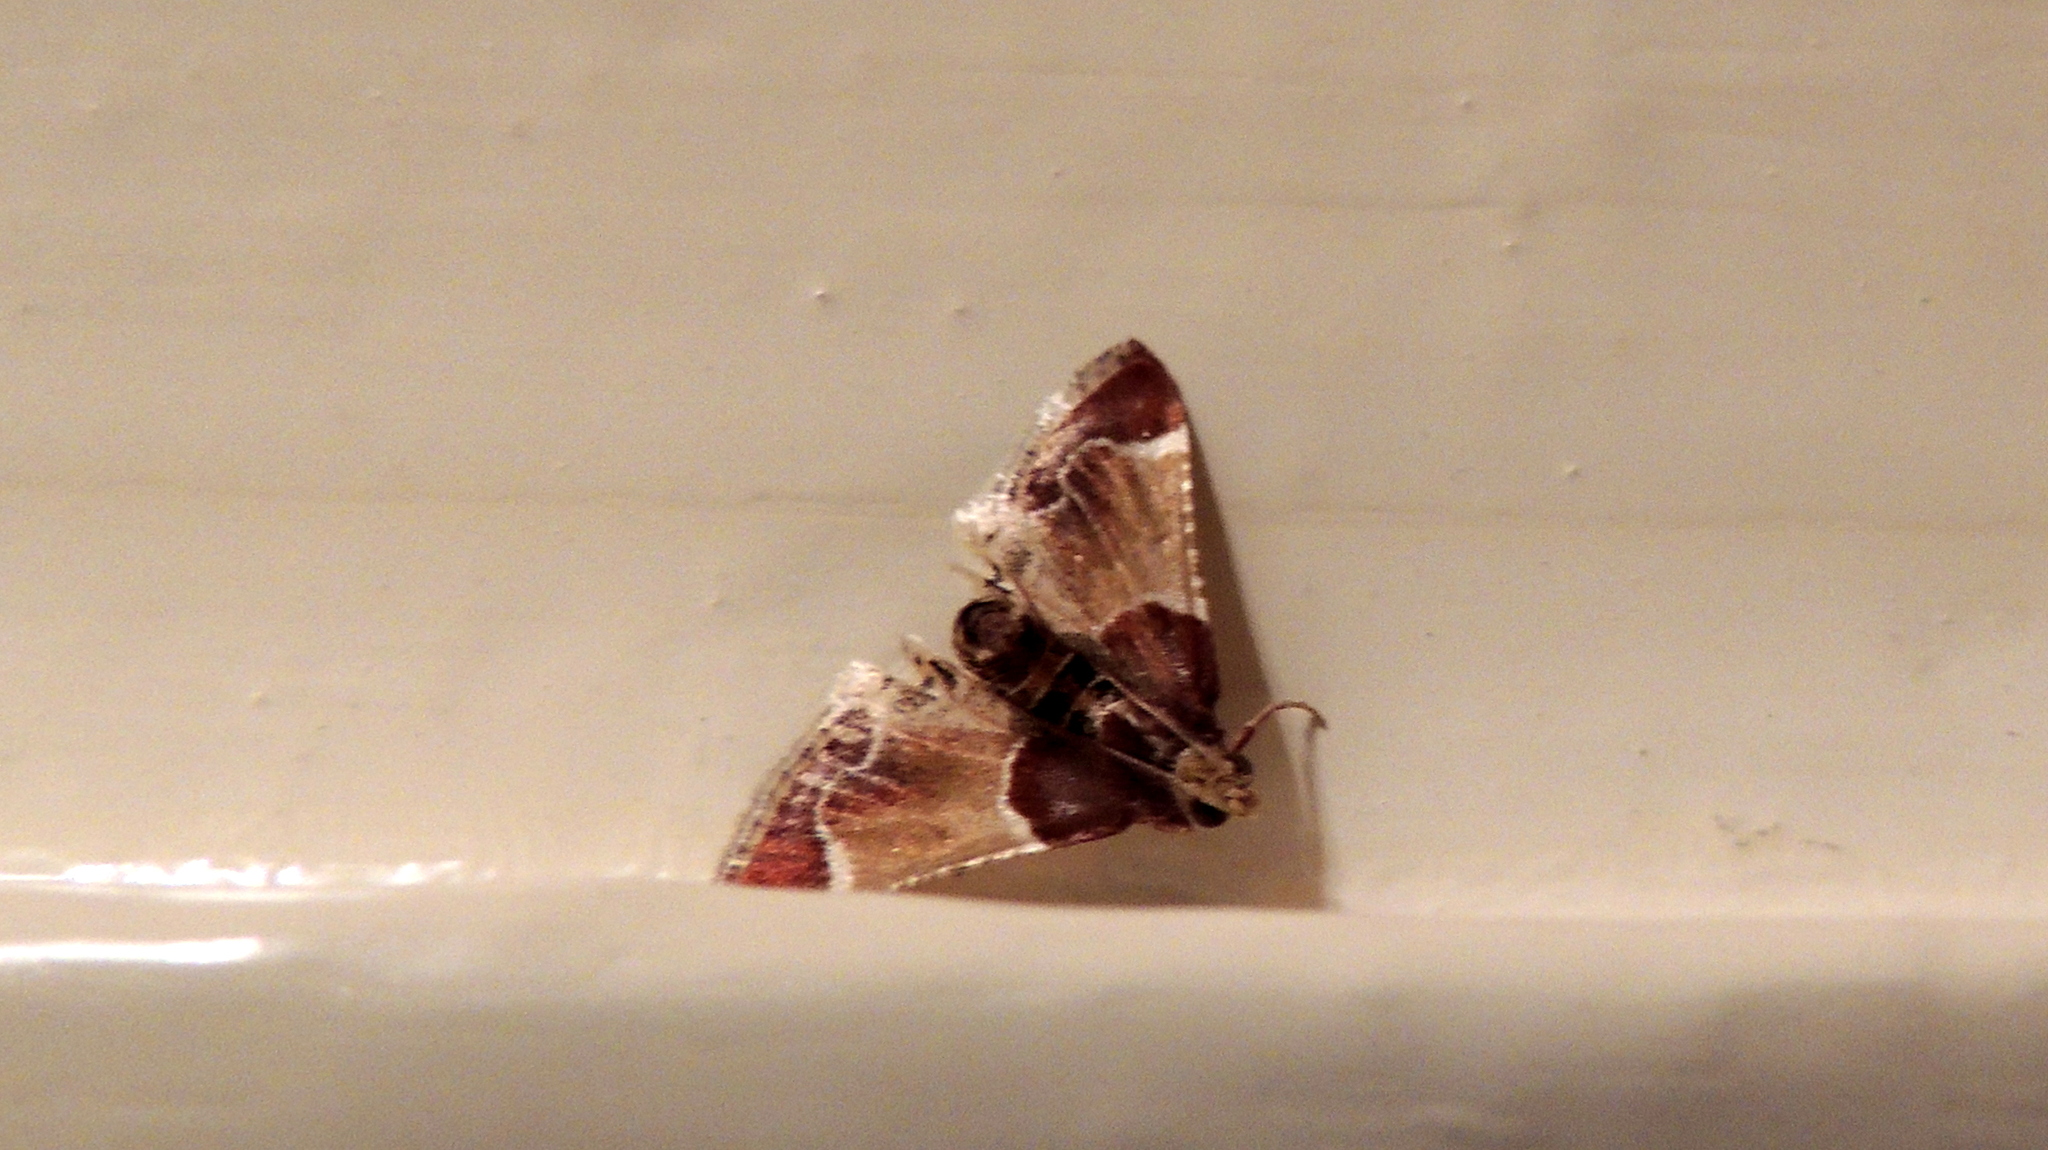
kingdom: Animalia
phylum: Arthropoda
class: Insecta
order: Lepidoptera
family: Pyralidae
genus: Pyralis
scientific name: Pyralis farinalis
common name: Meal moth
